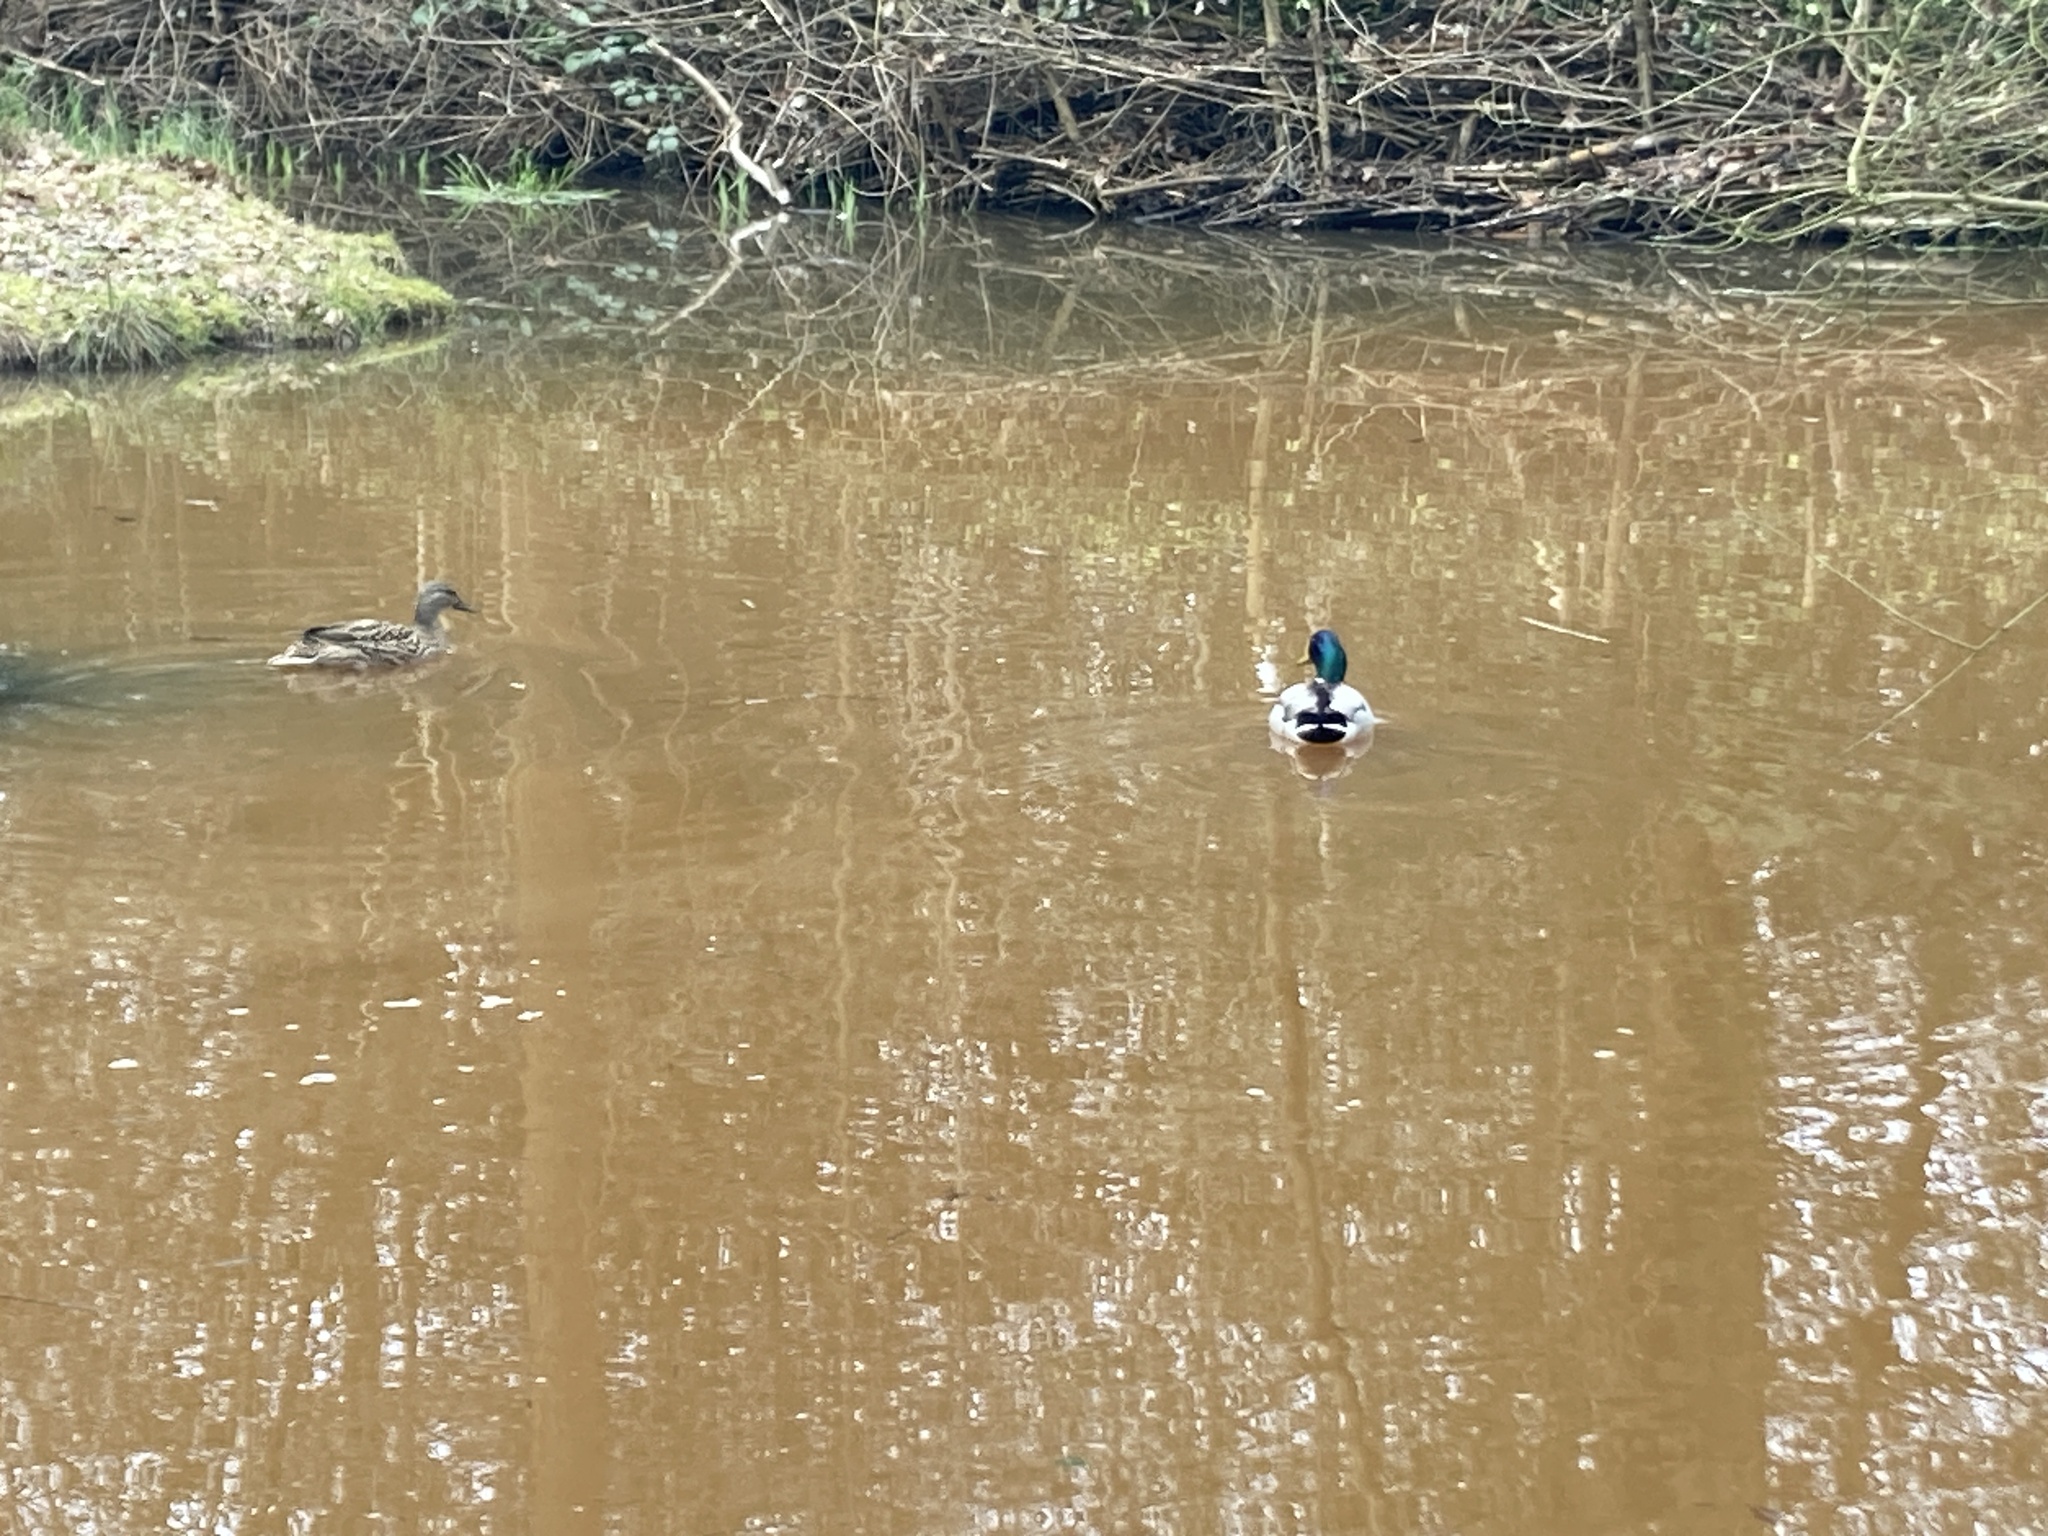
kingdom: Animalia
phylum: Chordata
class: Aves
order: Anseriformes
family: Anatidae
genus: Anas
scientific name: Anas platyrhynchos
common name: Mallard
